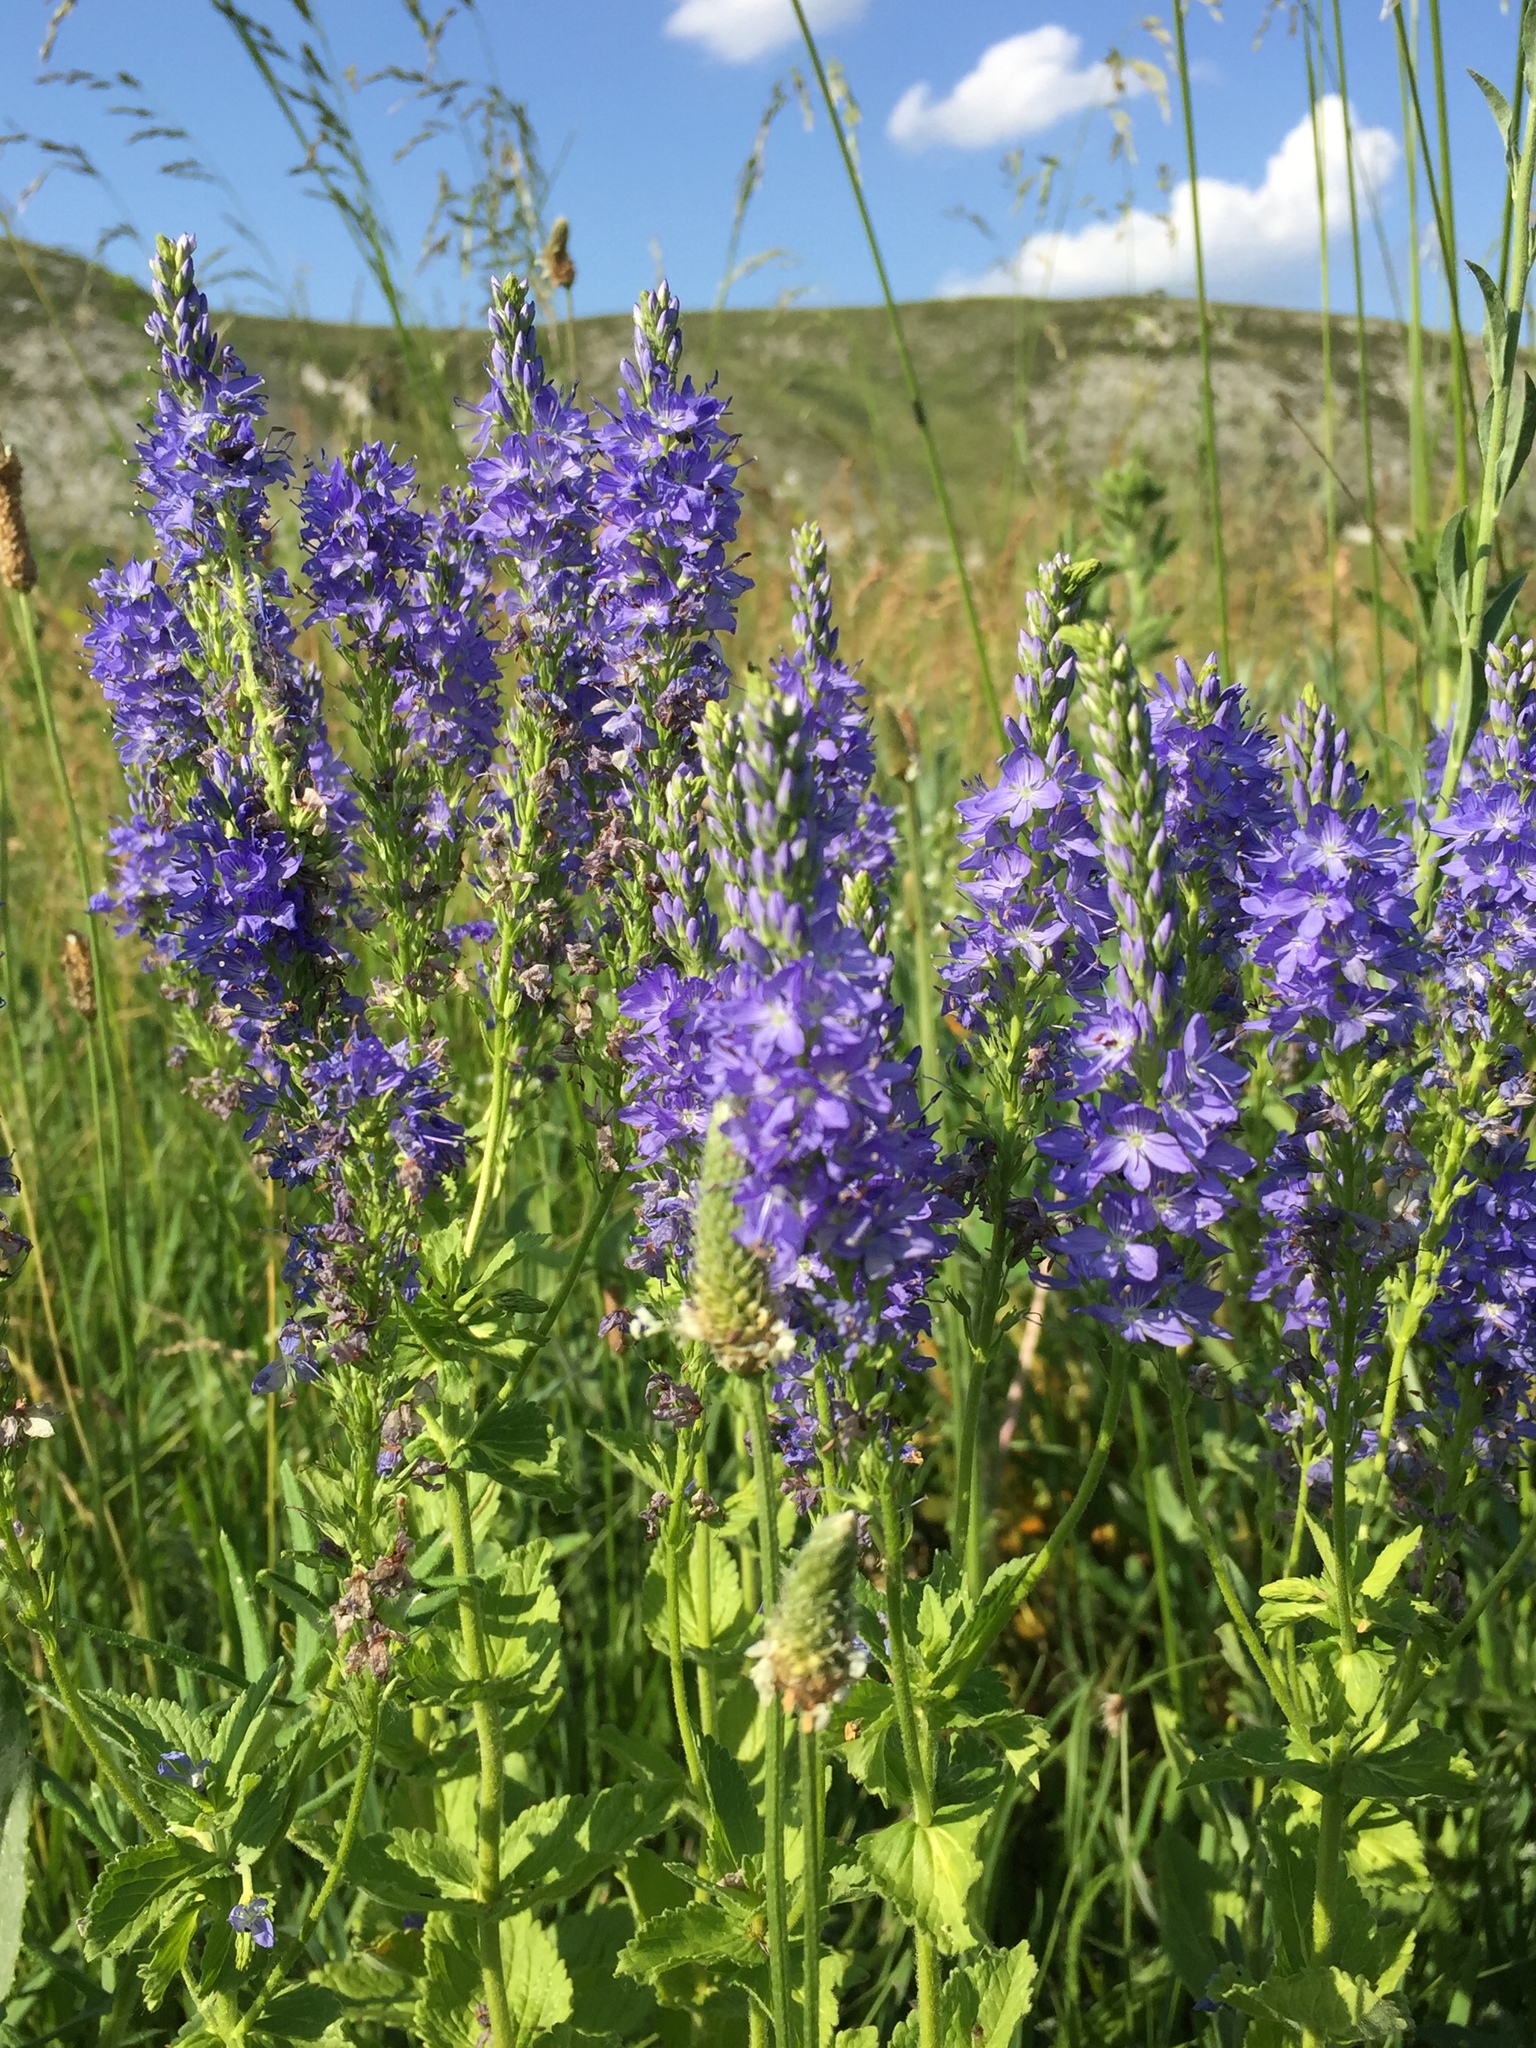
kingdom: Plantae
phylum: Tracheophyta
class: Magnoliopsida
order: Lamiales
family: Plantaginaceae
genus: Veronica
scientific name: Veronica teucrium
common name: Large speedwell
